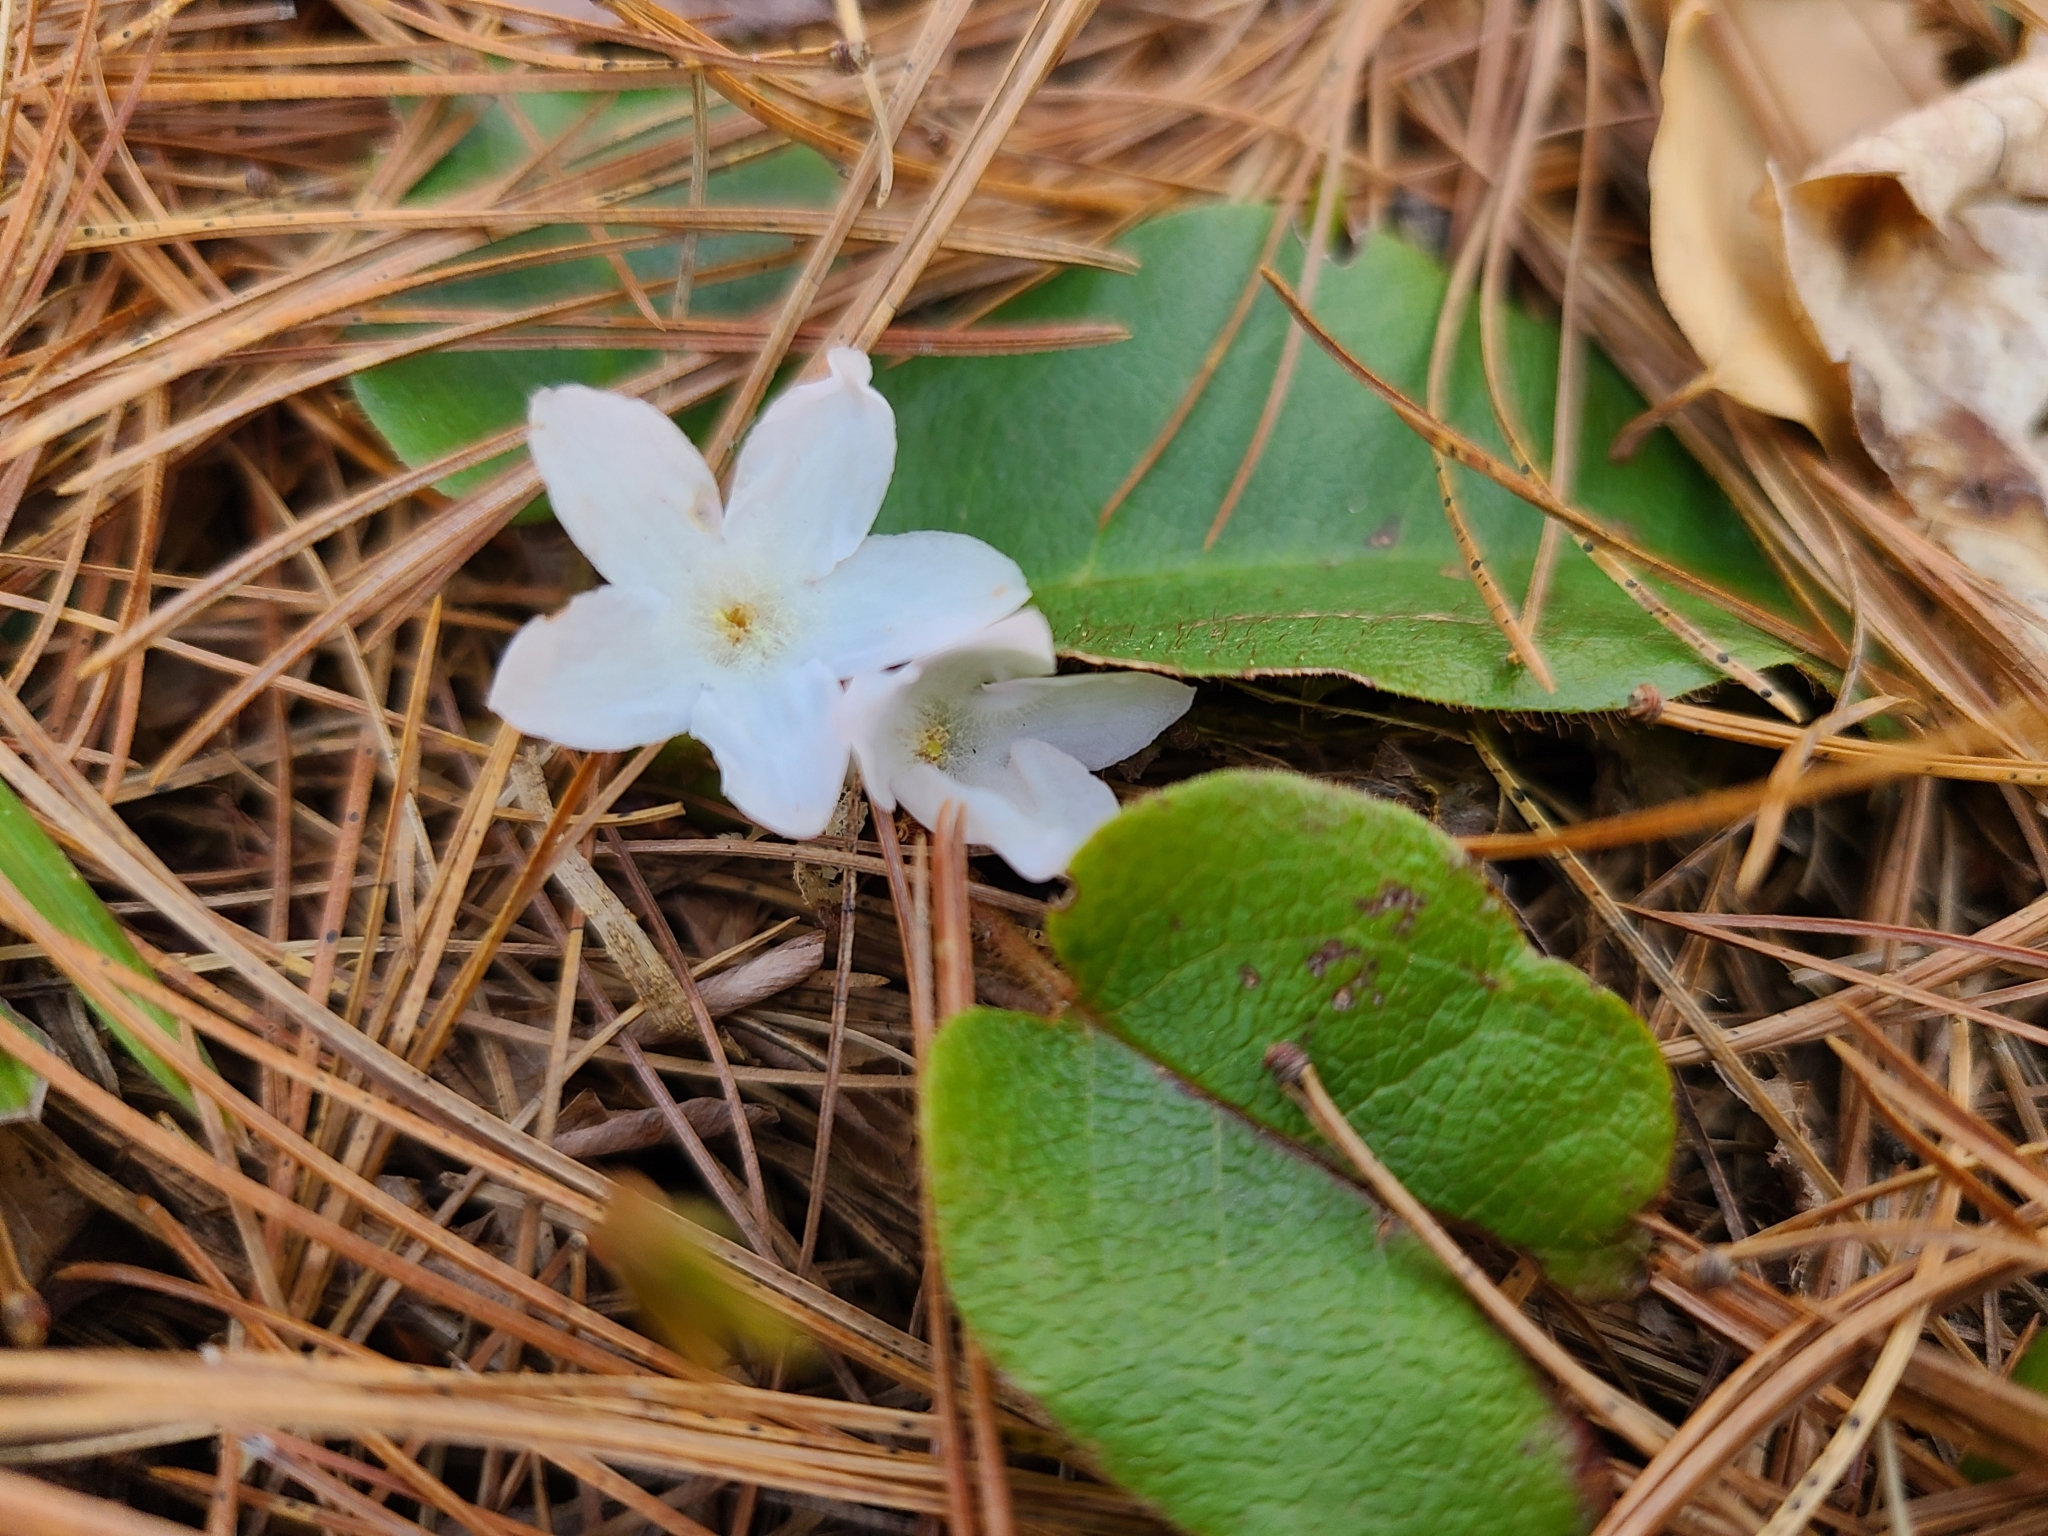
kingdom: Plantae
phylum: Tracheophyta
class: Magnoliopsida
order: Ericales
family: Ericaceae
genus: Epigaea
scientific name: Epigaea repens
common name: Gravelroot
